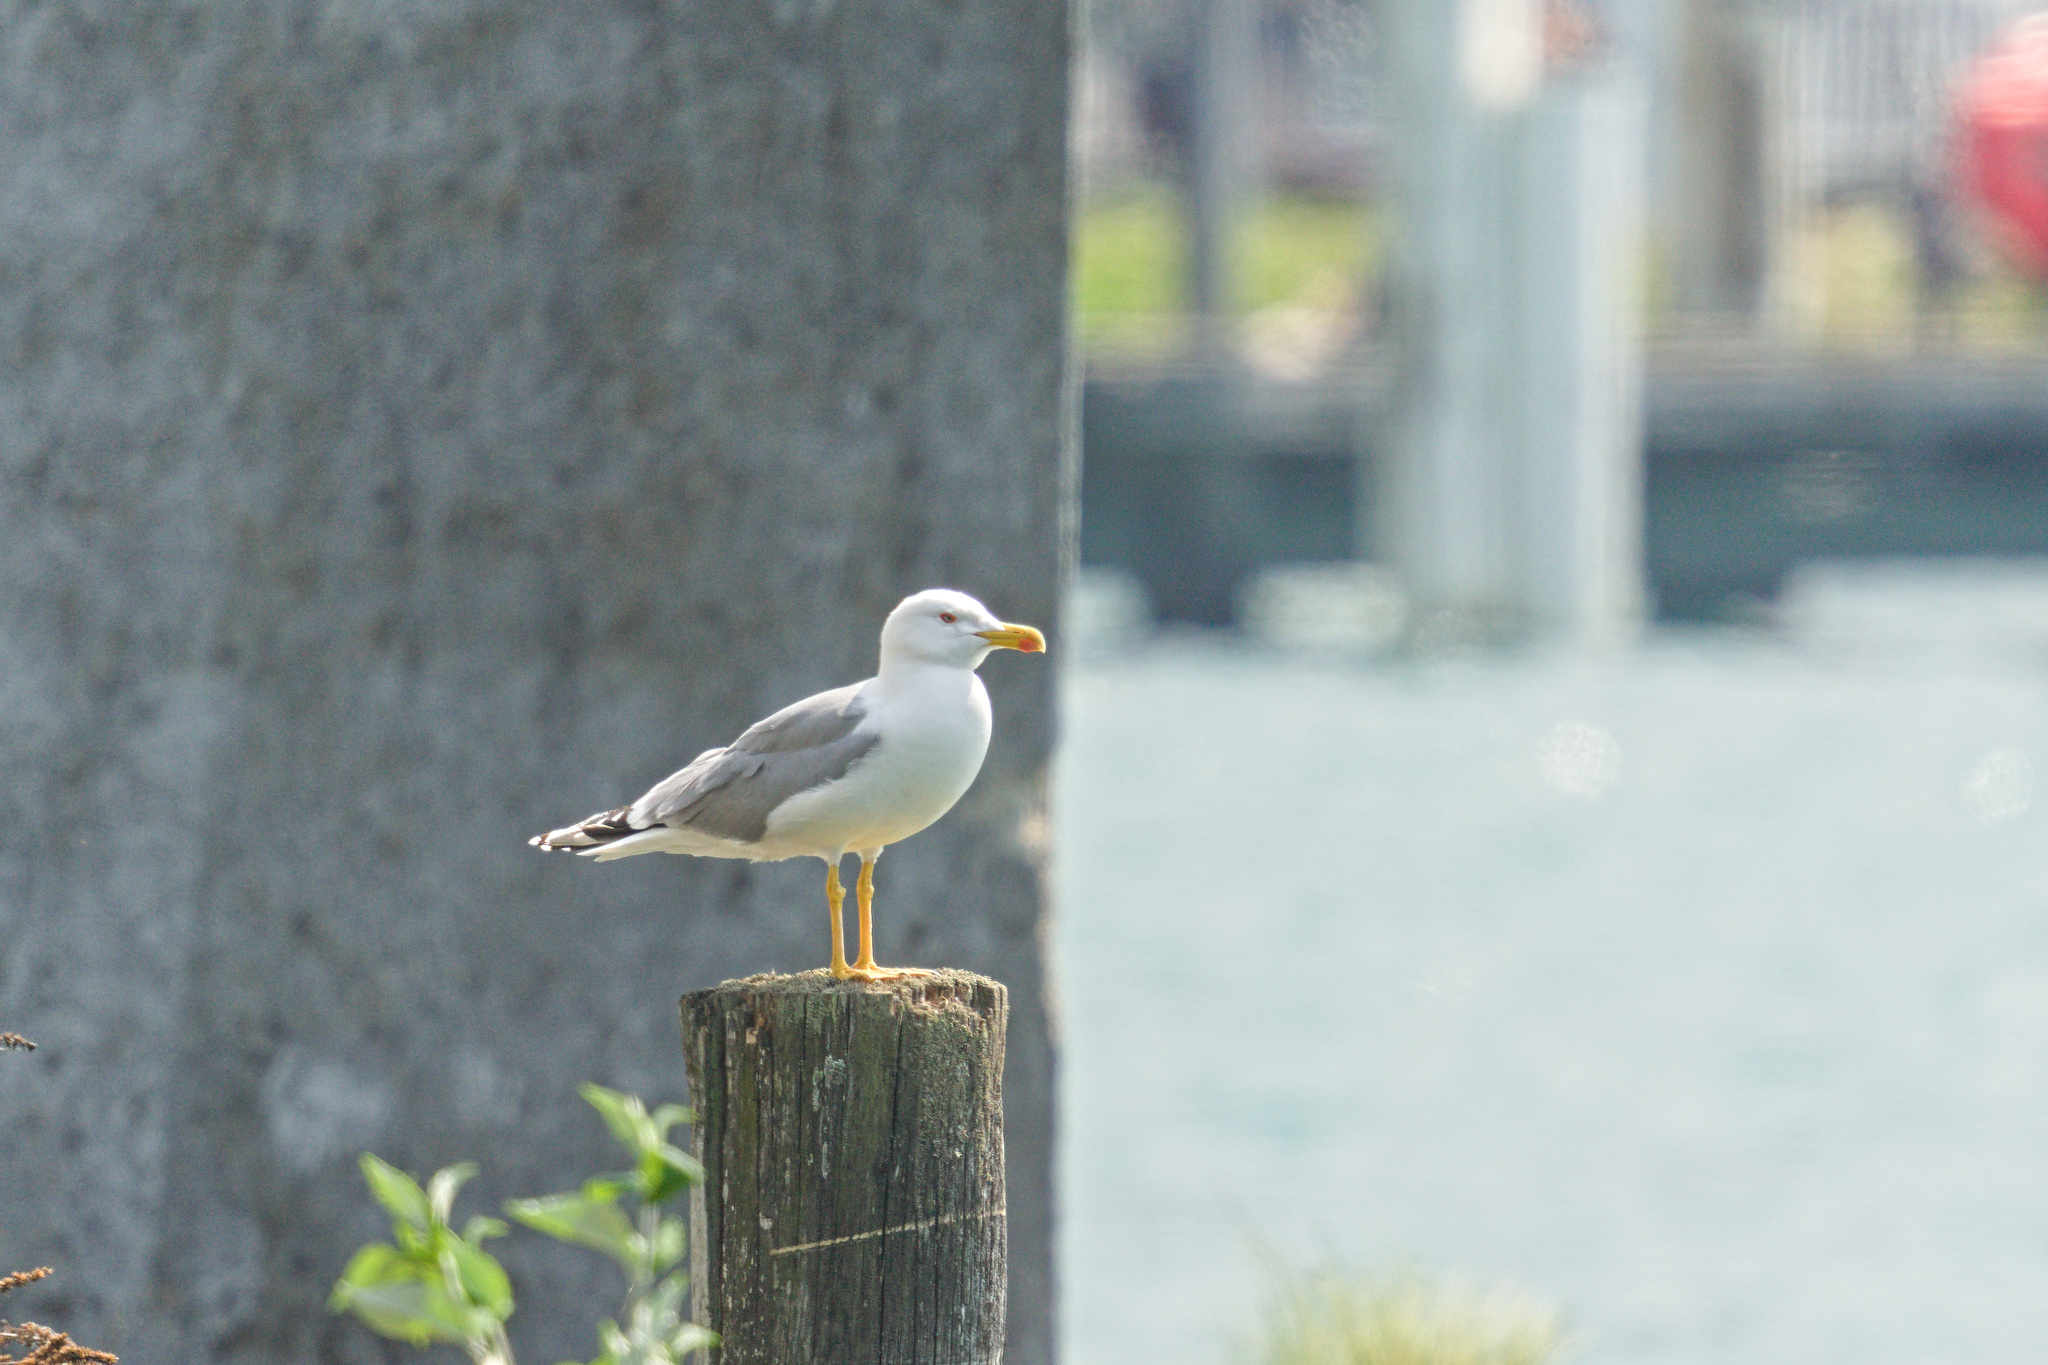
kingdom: Animalia
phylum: Chordata
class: Aves
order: Charadriiformes
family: Laridae
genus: Larus
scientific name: Larus michahellis
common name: Yellow-legged gull
